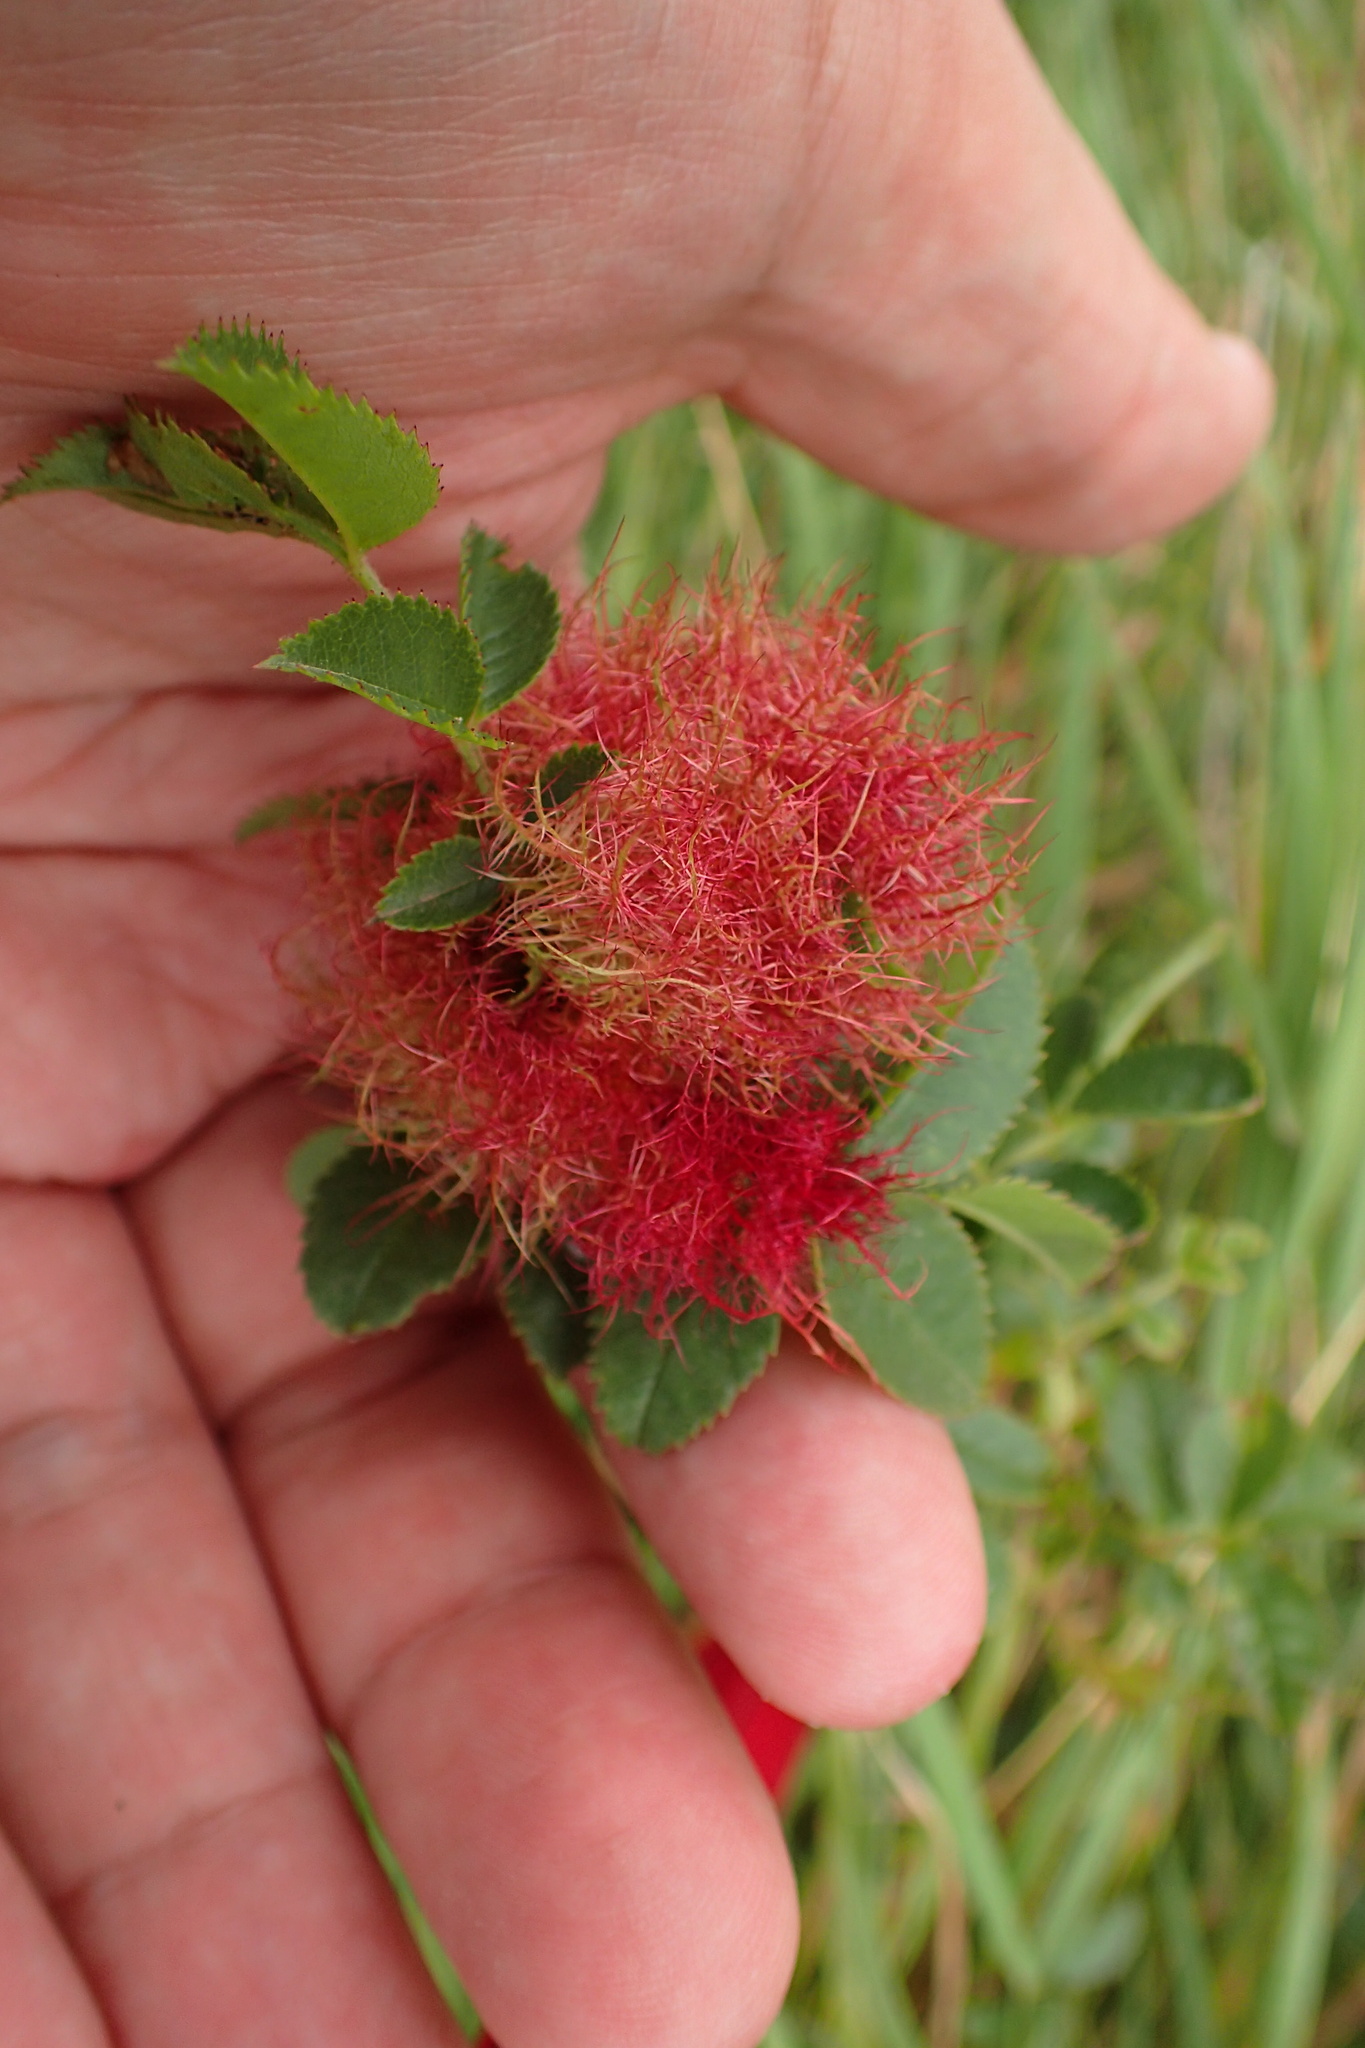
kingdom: Animalia
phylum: Arthropoda
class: Insecta
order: Hymenoptera
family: Cynipidae
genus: Diplolepis
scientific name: Diplolepis rosae
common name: Bedeguar gall
